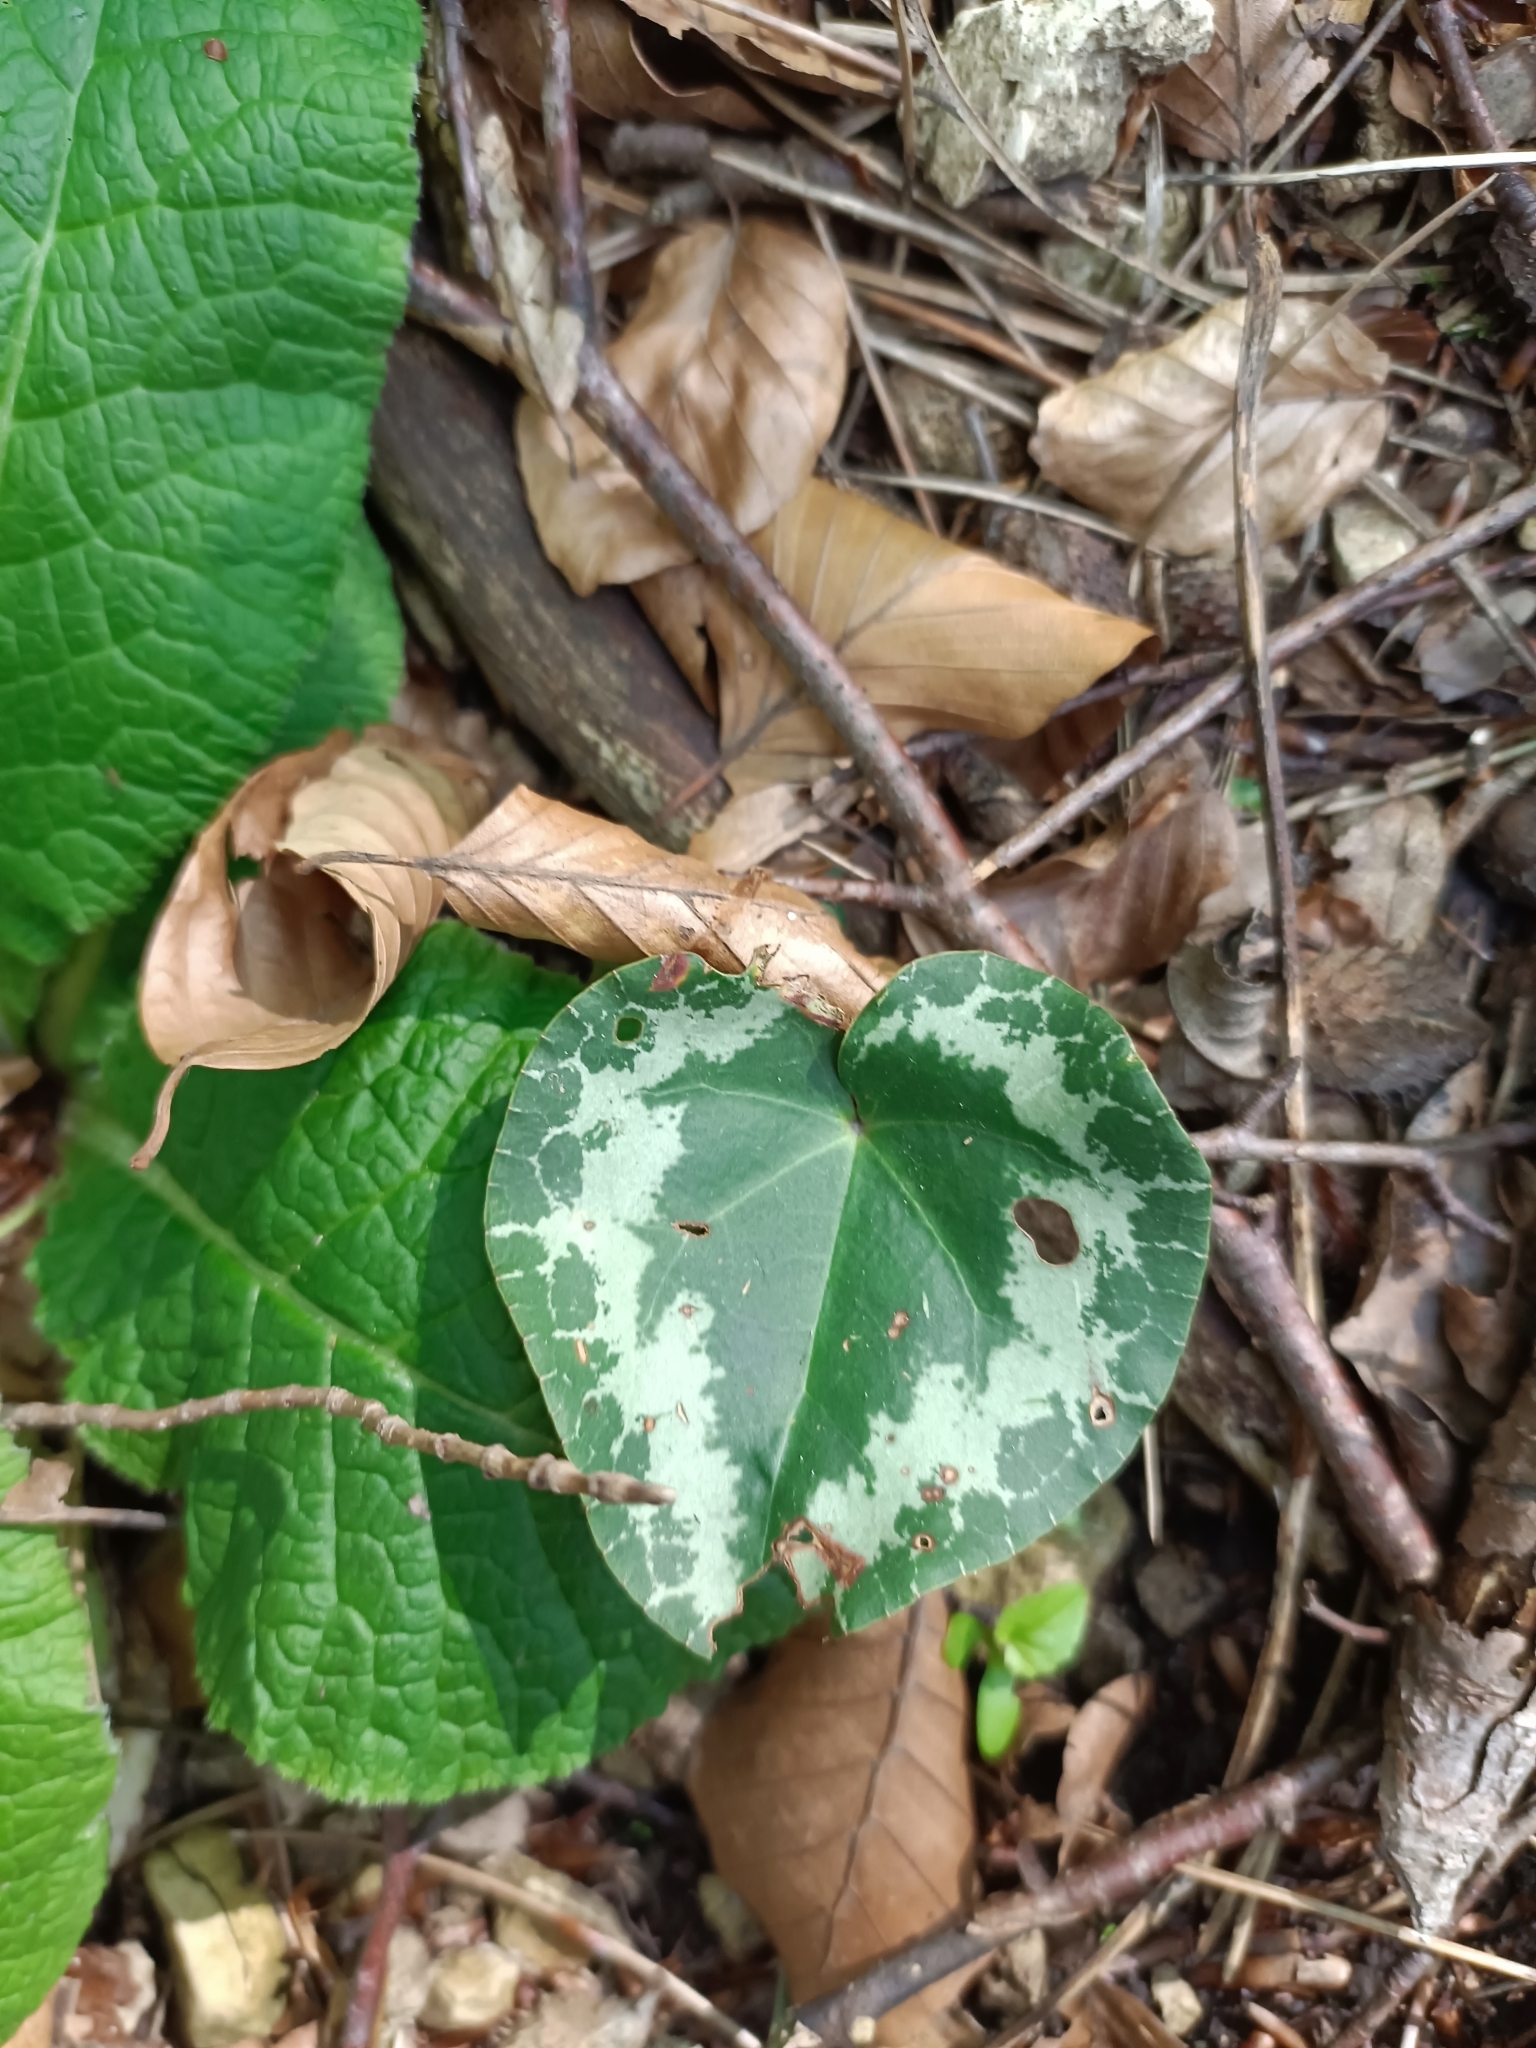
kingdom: Plantae
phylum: Tracheophyta
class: Magnoliopsida
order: Ericales
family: Primulaceae
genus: Cyclamen
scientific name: Cyclamen purpurascens
